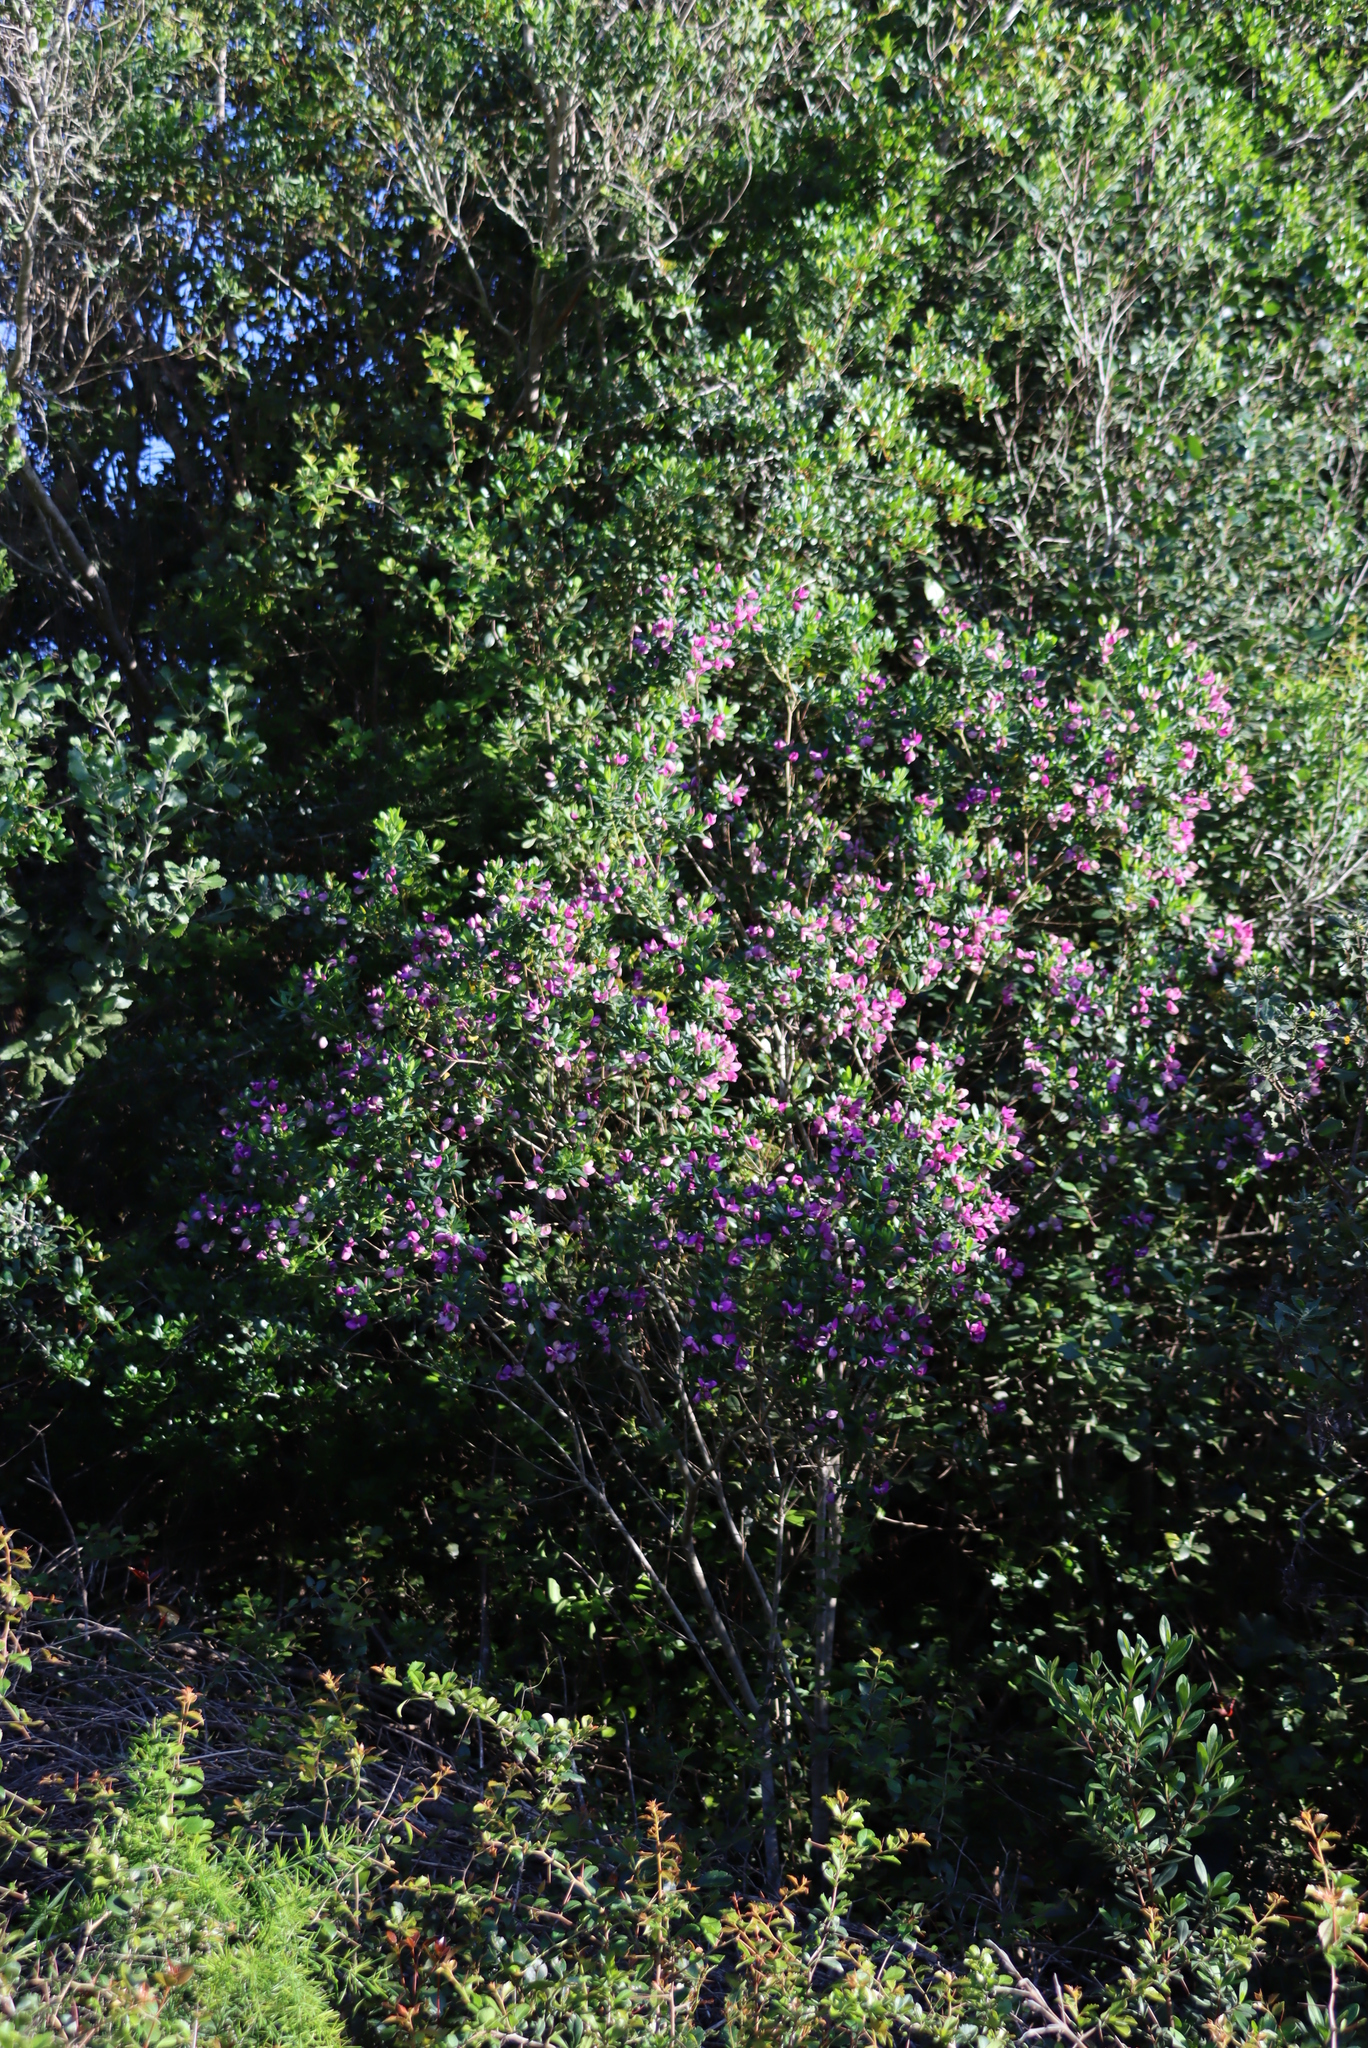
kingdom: Plantae
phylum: Tracheophyta
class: Magnoliopsida
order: Fabales
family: Polygalaceae
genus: Polygala
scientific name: Polygala myrtifolia
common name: Myrtle-leaf milkwort
